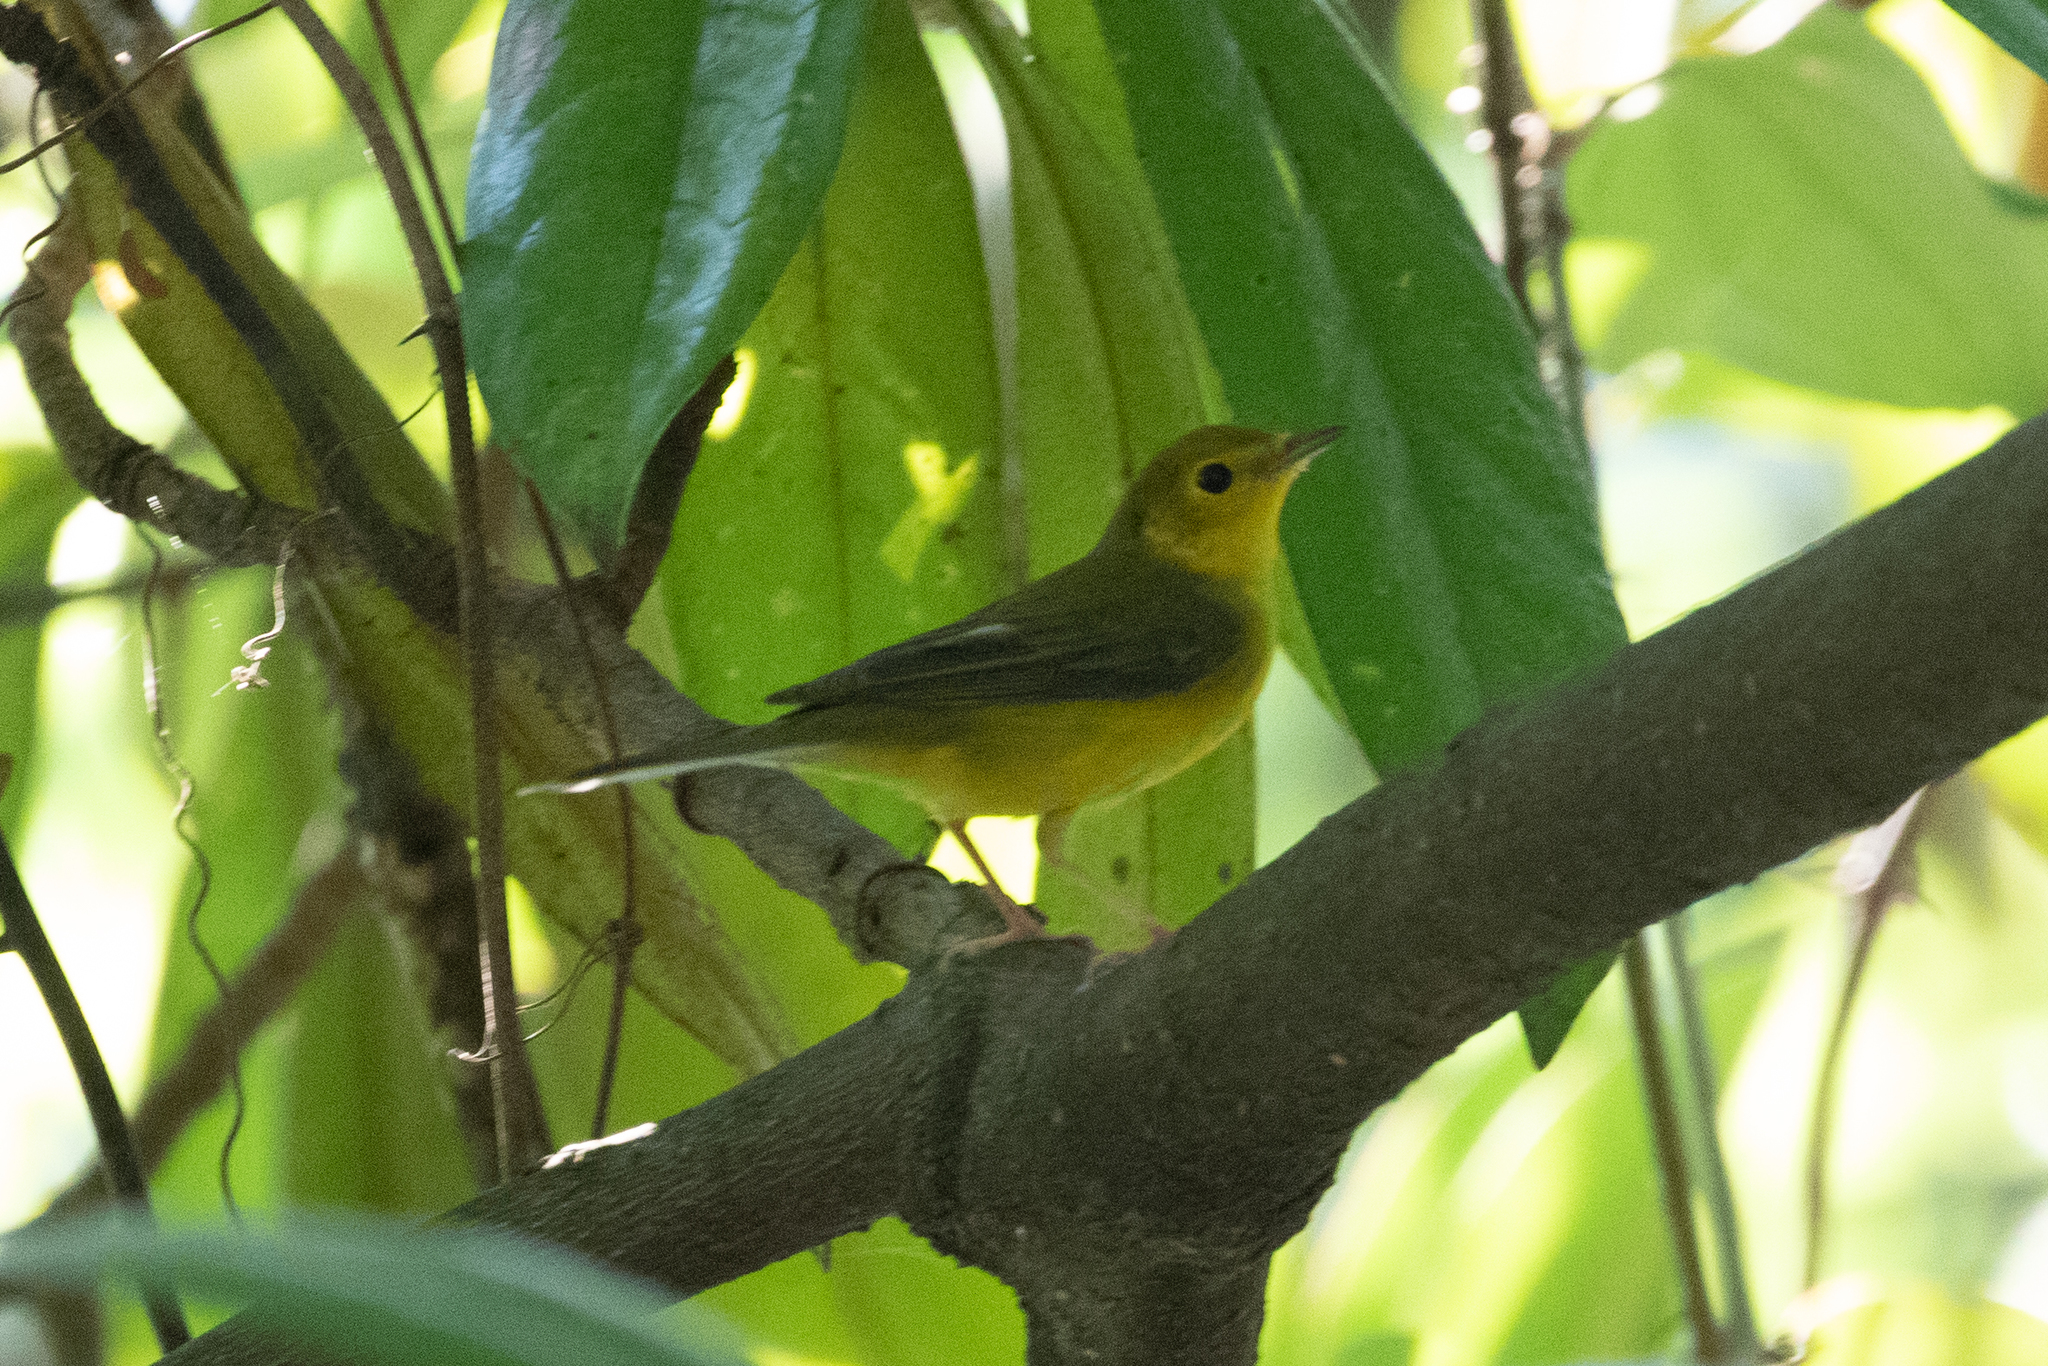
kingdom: Animalia
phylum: Chordata
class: Aves
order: Passeriformes
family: Parulidae
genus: Setophaga
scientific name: Setophaga citrina
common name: Hooded warbler
